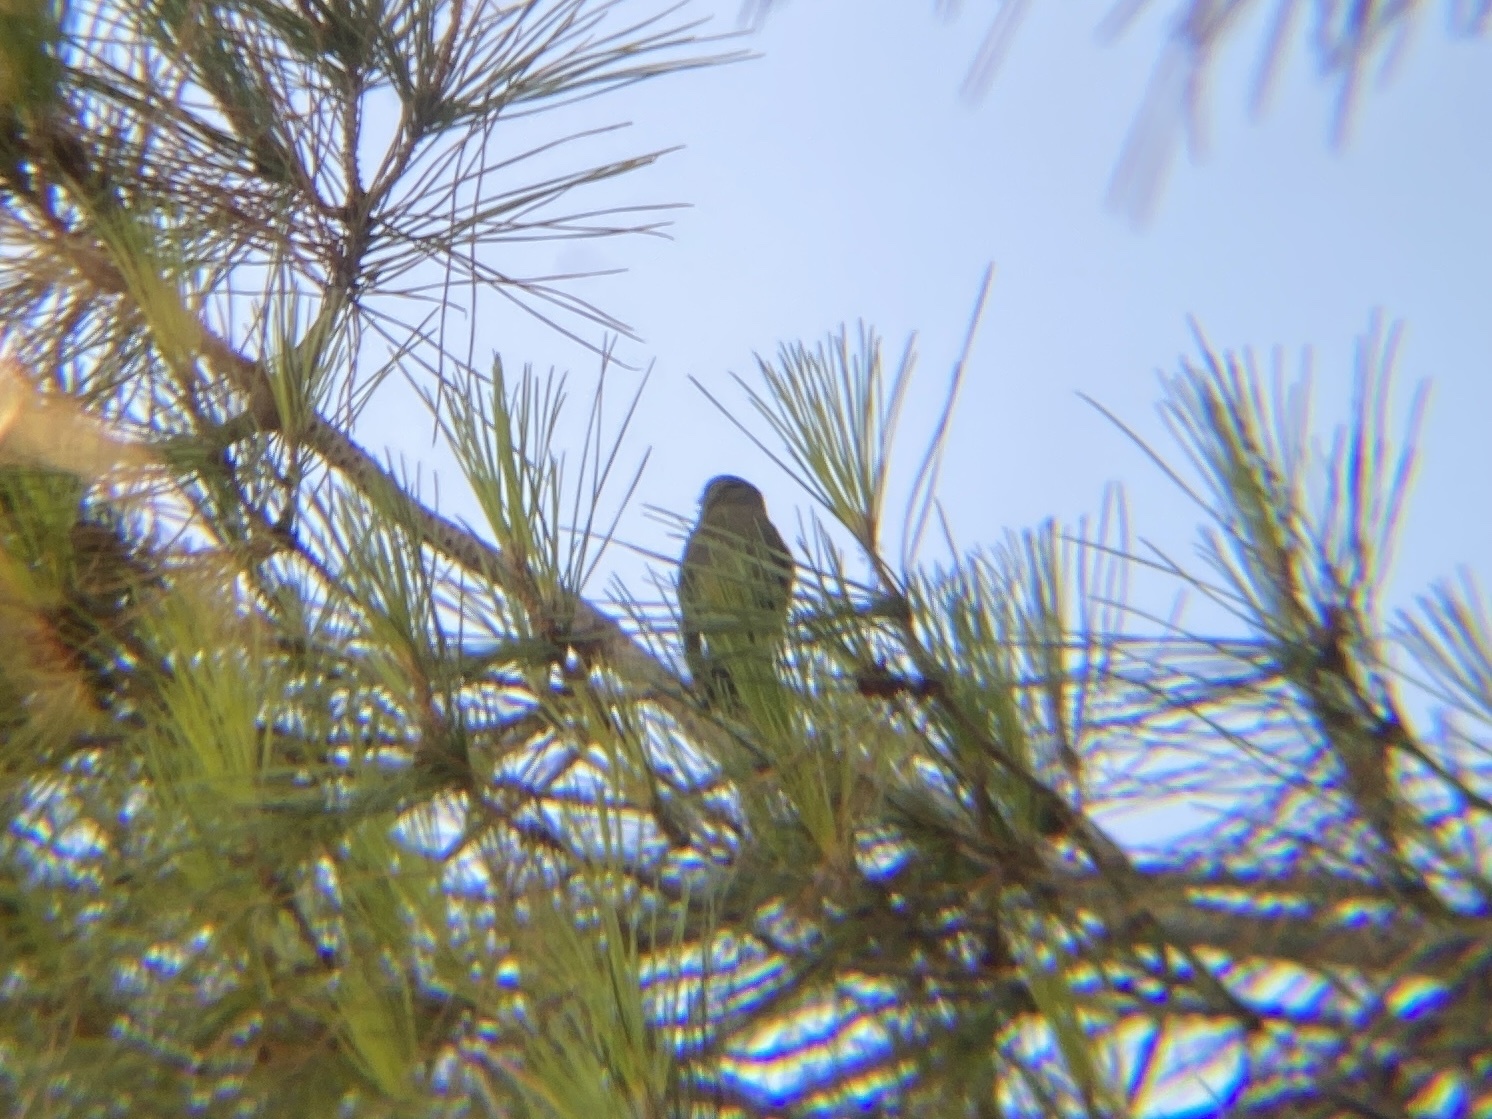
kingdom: Plantae
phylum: Tracheophyta
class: Liliopsida
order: Poales
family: Poaceae
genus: Chloris
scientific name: Chloris chloris
